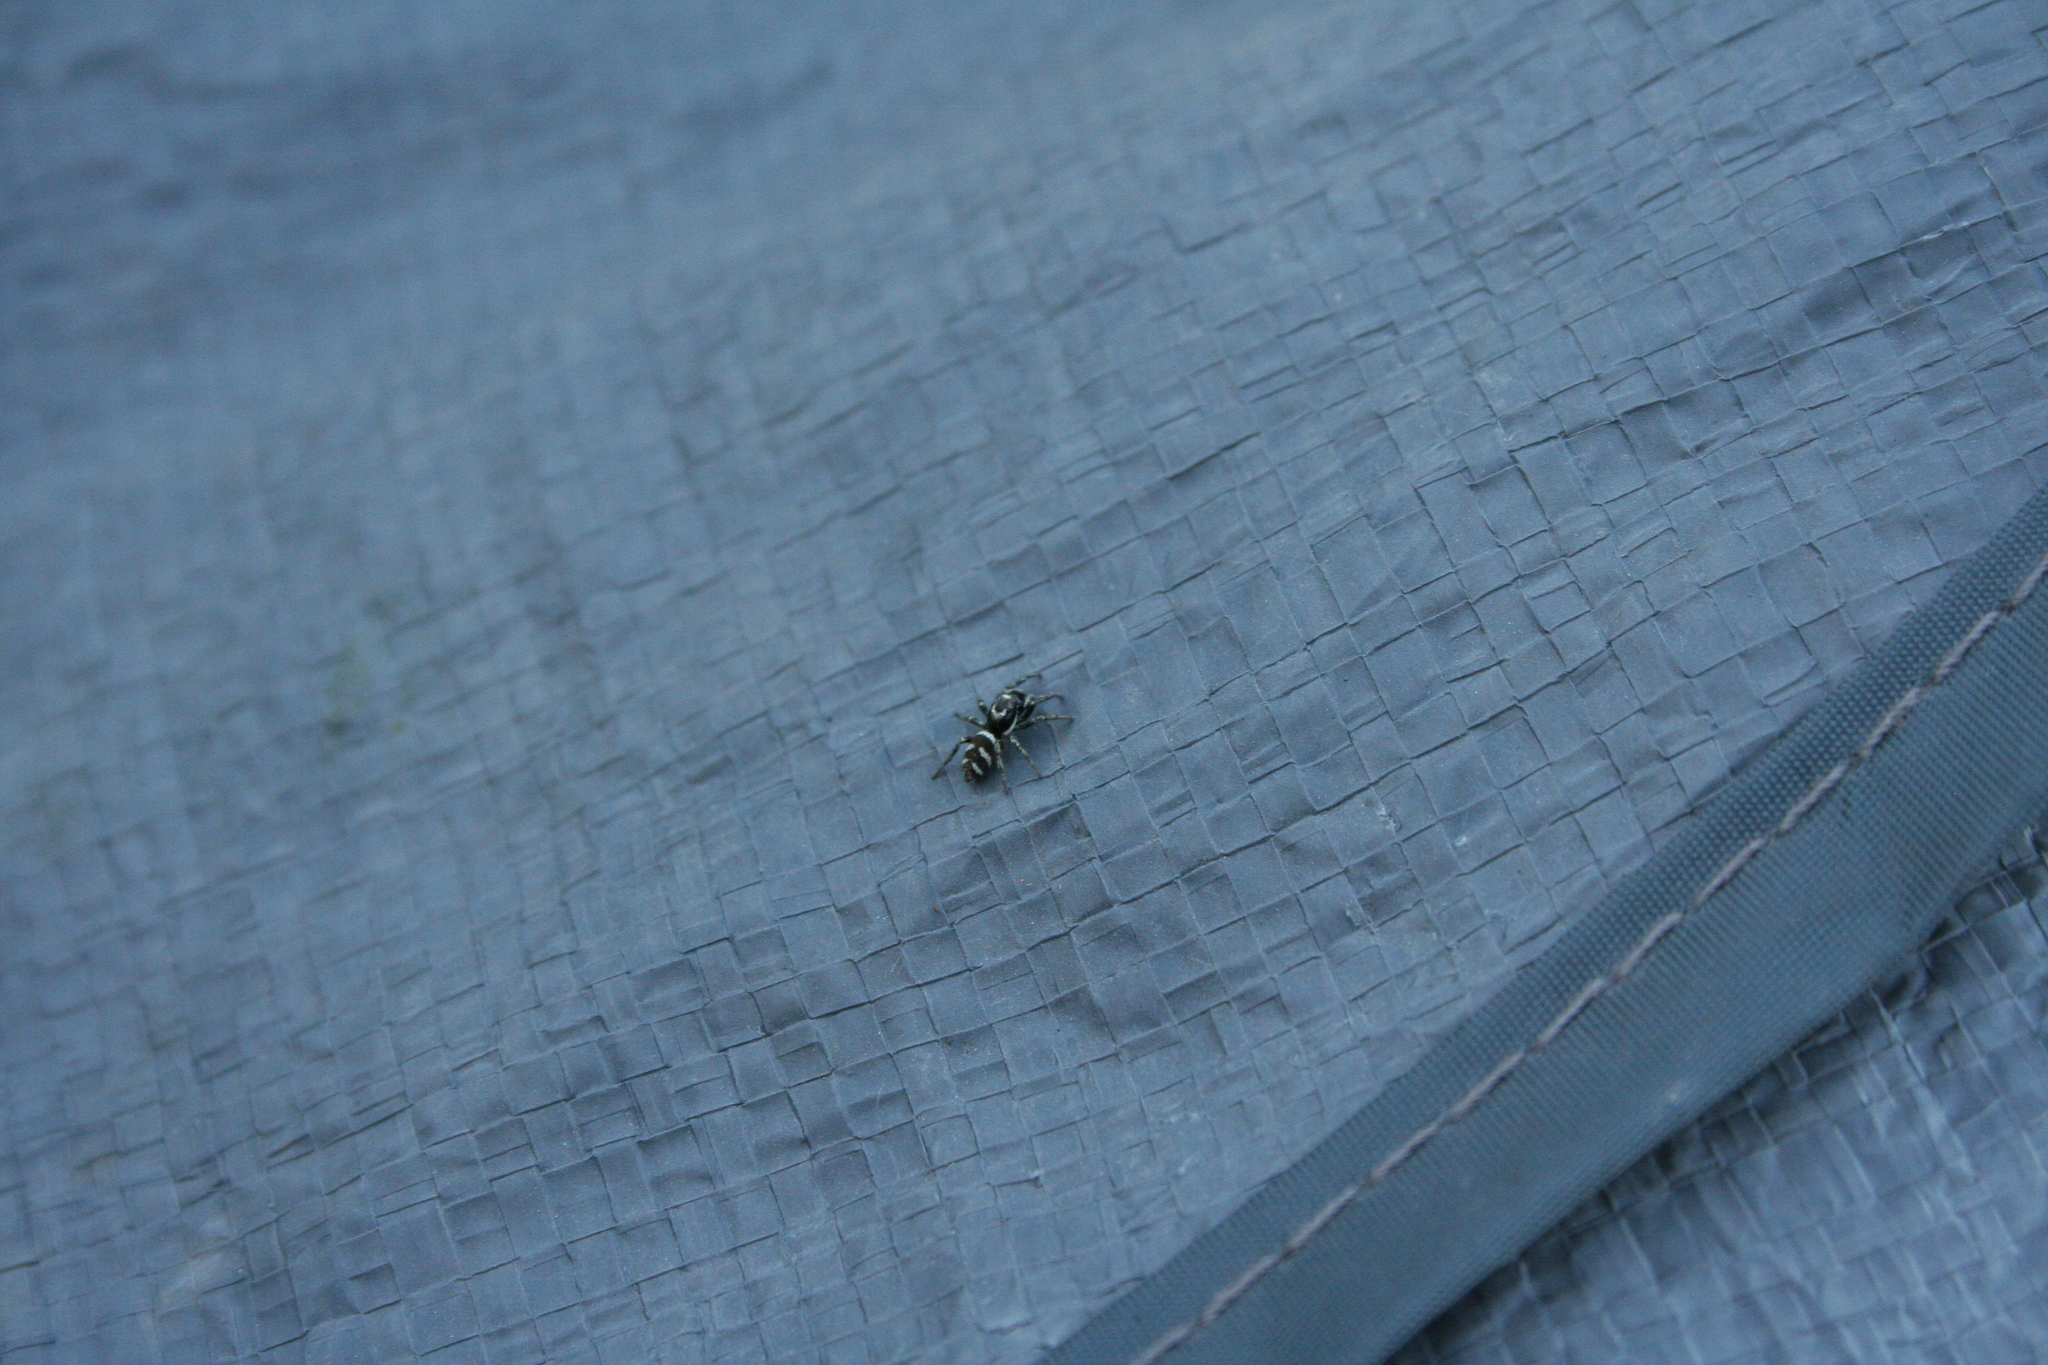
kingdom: Animalia
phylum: Arthropoda
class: Arachnida
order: Araneae
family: Salticidae
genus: Salticus
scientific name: Salticus scenicus
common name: Zebra jumper
